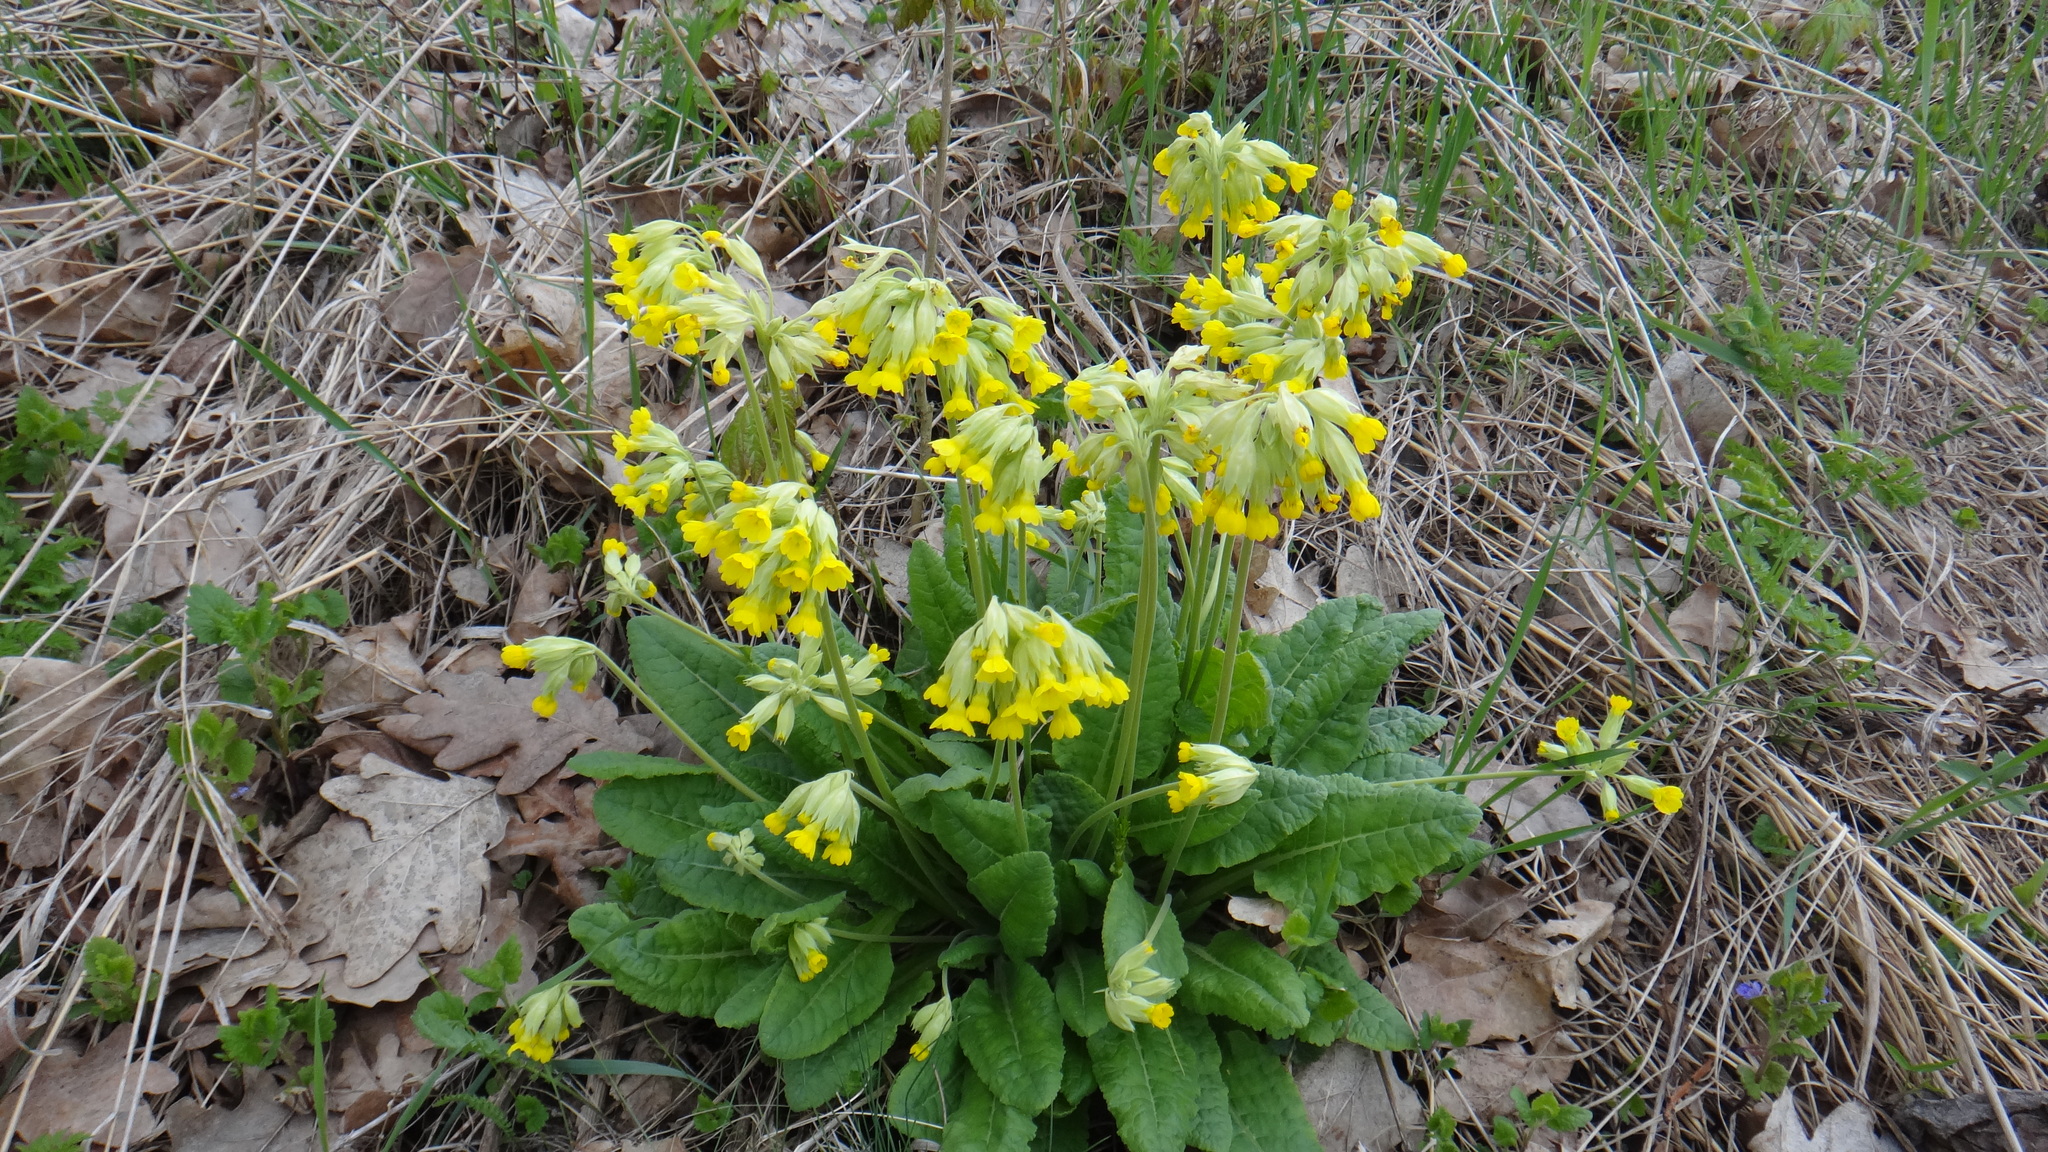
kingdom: Plantae
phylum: Tracheophyta
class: Magnoliopsida
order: Ericales
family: Primulaceae
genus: Primula
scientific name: Primula veris
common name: Cowslip
